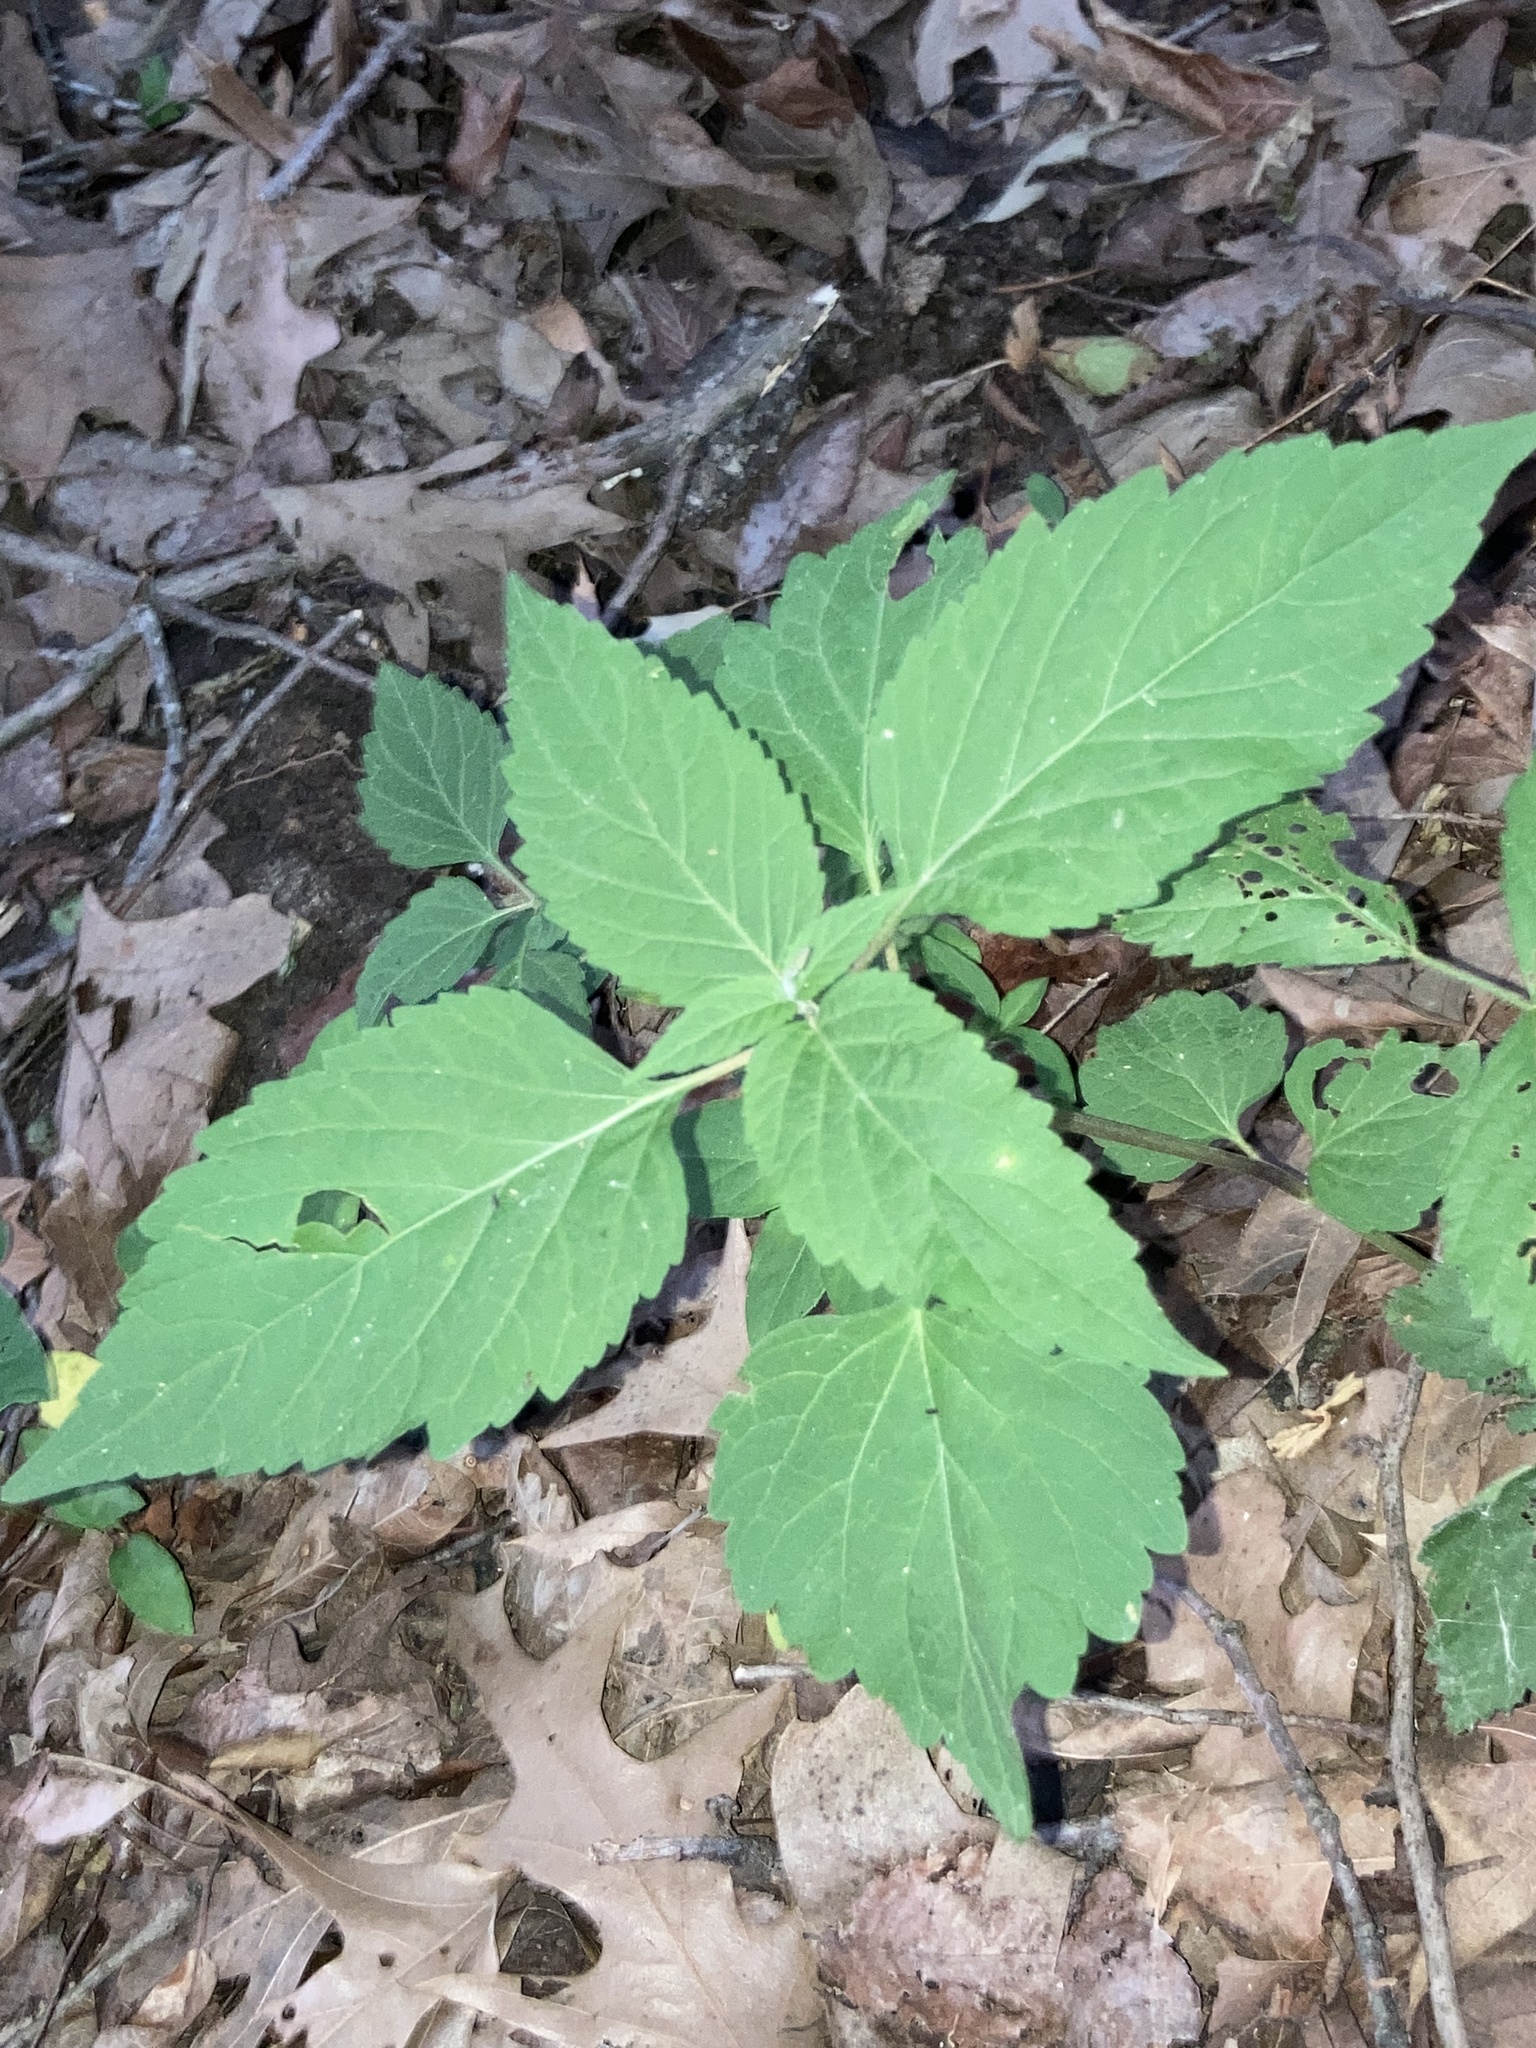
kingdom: Plantae
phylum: Tracheophyta
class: Magnoliopsida
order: Lamiales
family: Phrymaceae
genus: Phryma
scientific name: Phryma leptostachya
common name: American lopseed
